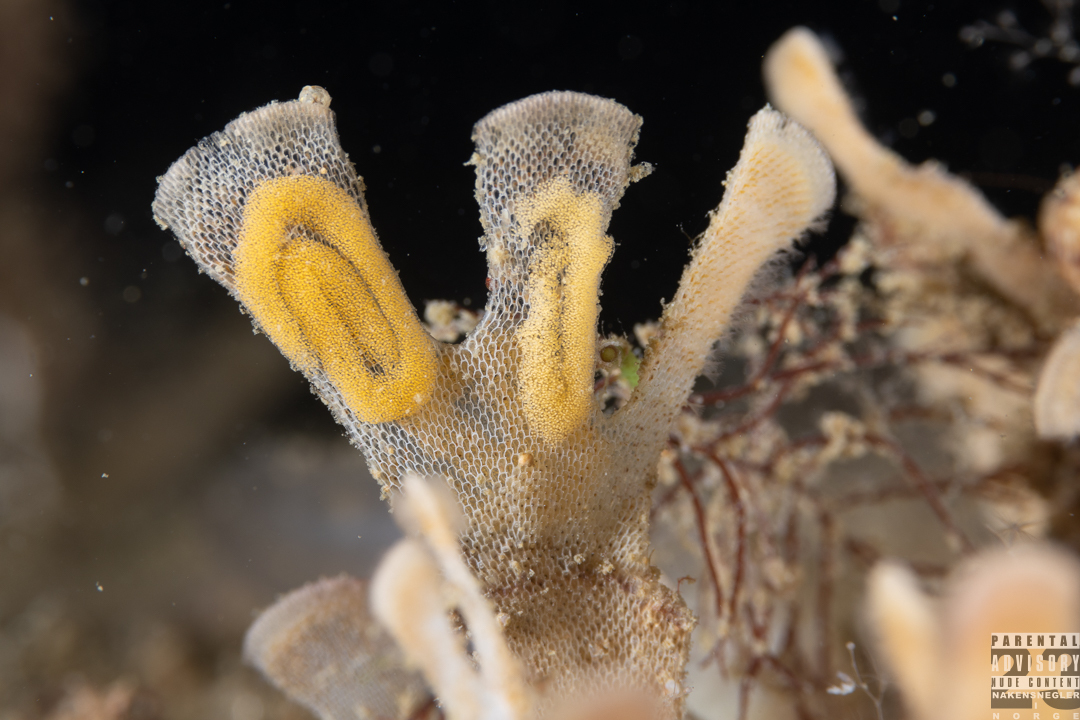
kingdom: Animalia
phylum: Mollusca
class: Gastropoda
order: Nudibranchia
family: Polyceridae
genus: Crimora
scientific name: Crimora papillata
